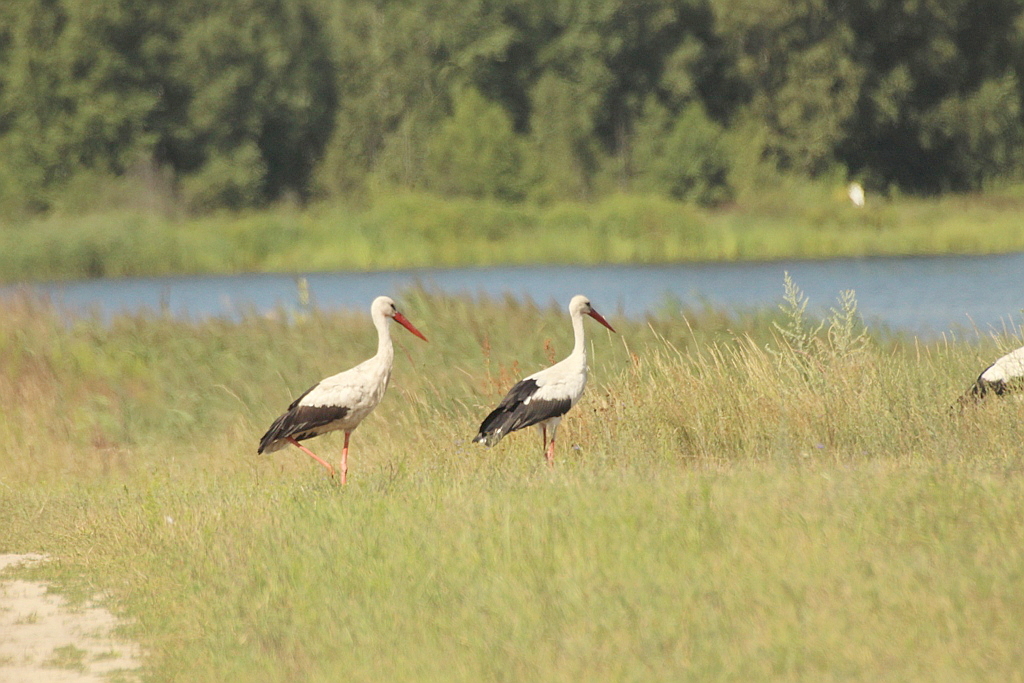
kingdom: Animalia
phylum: Chordata
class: Aves
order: Ciconiiformes
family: Ciconiidae
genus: Ciconia
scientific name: Ciconia ciconia
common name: White stork
